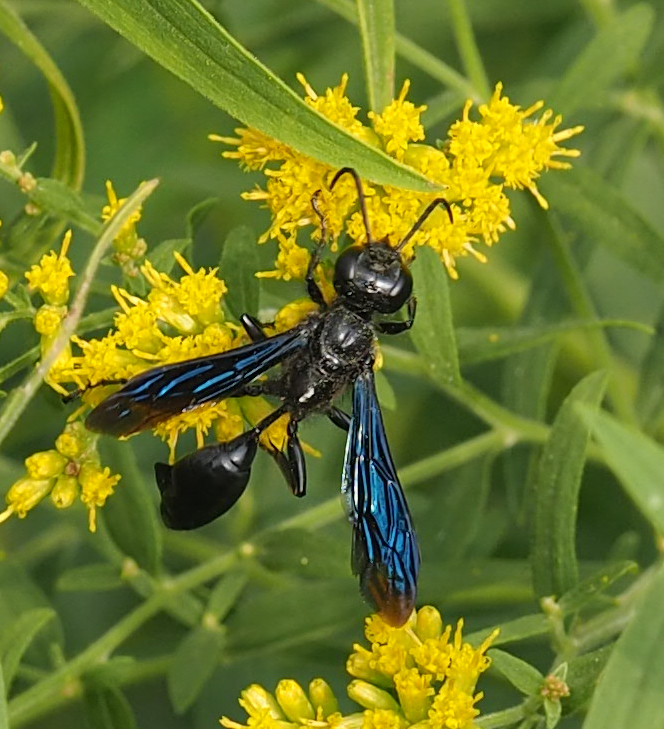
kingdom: Animalia
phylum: Arthropoda
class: Insecta
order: Hymenoptera
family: Sphecidae
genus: Isodontia
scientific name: Isodontia philadelphica
